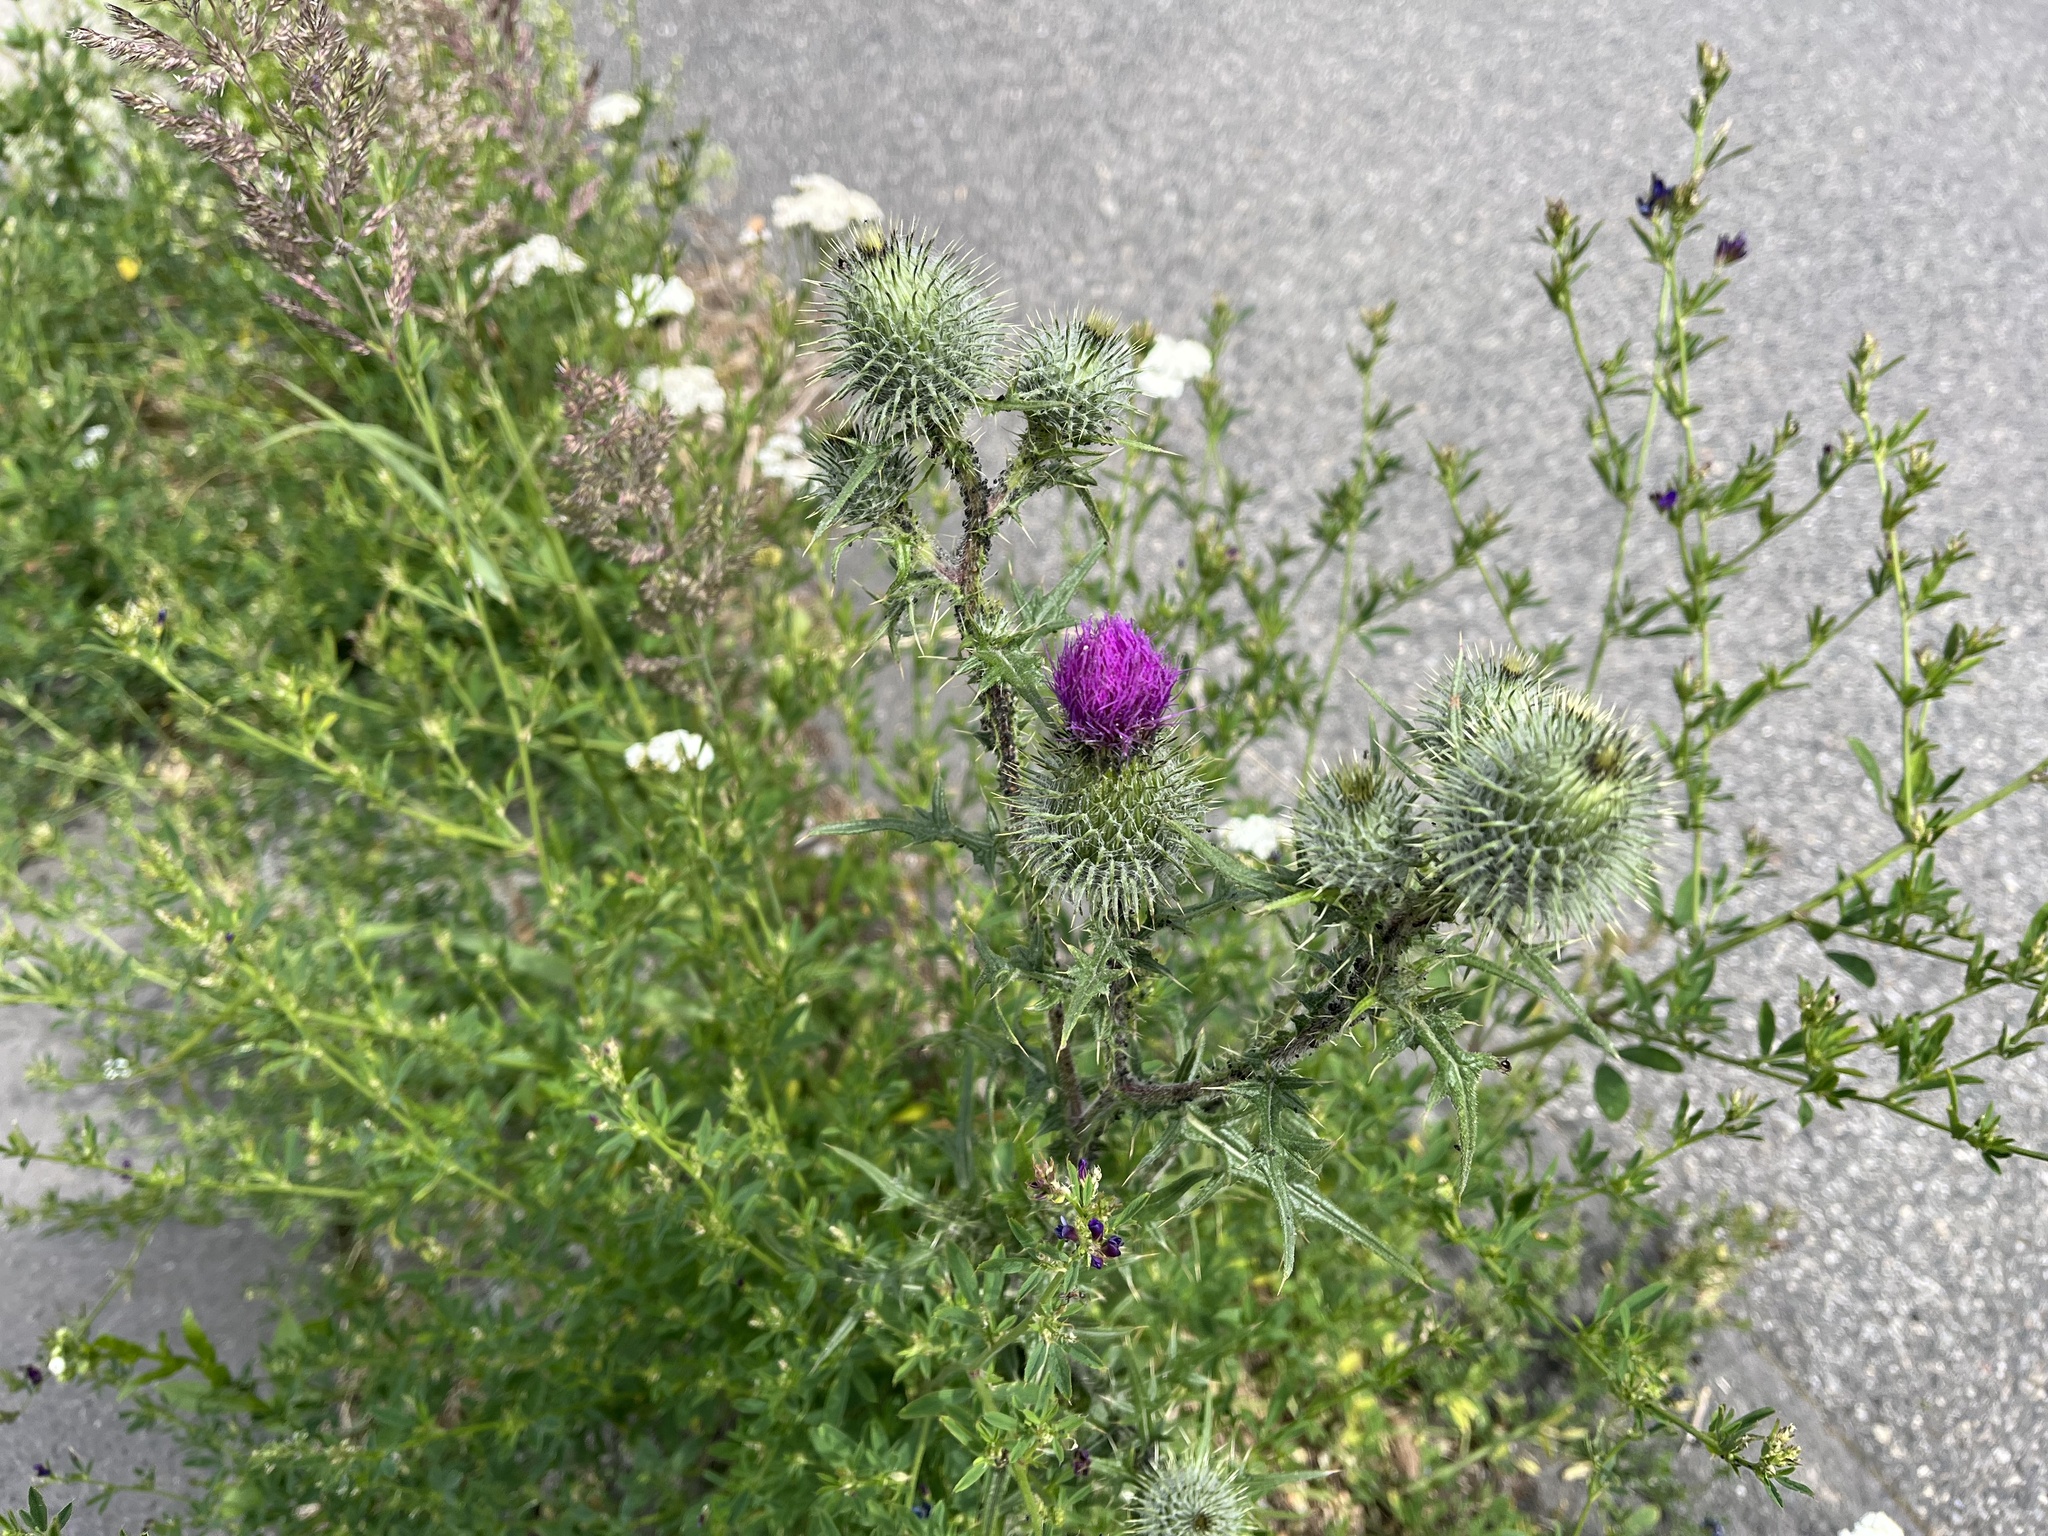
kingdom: Plantae
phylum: Tracheophyta
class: Magnoliopsida
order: Asterales
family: Asteraceae
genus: Cirsium
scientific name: Cirsium vulgare
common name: Bull thistle
